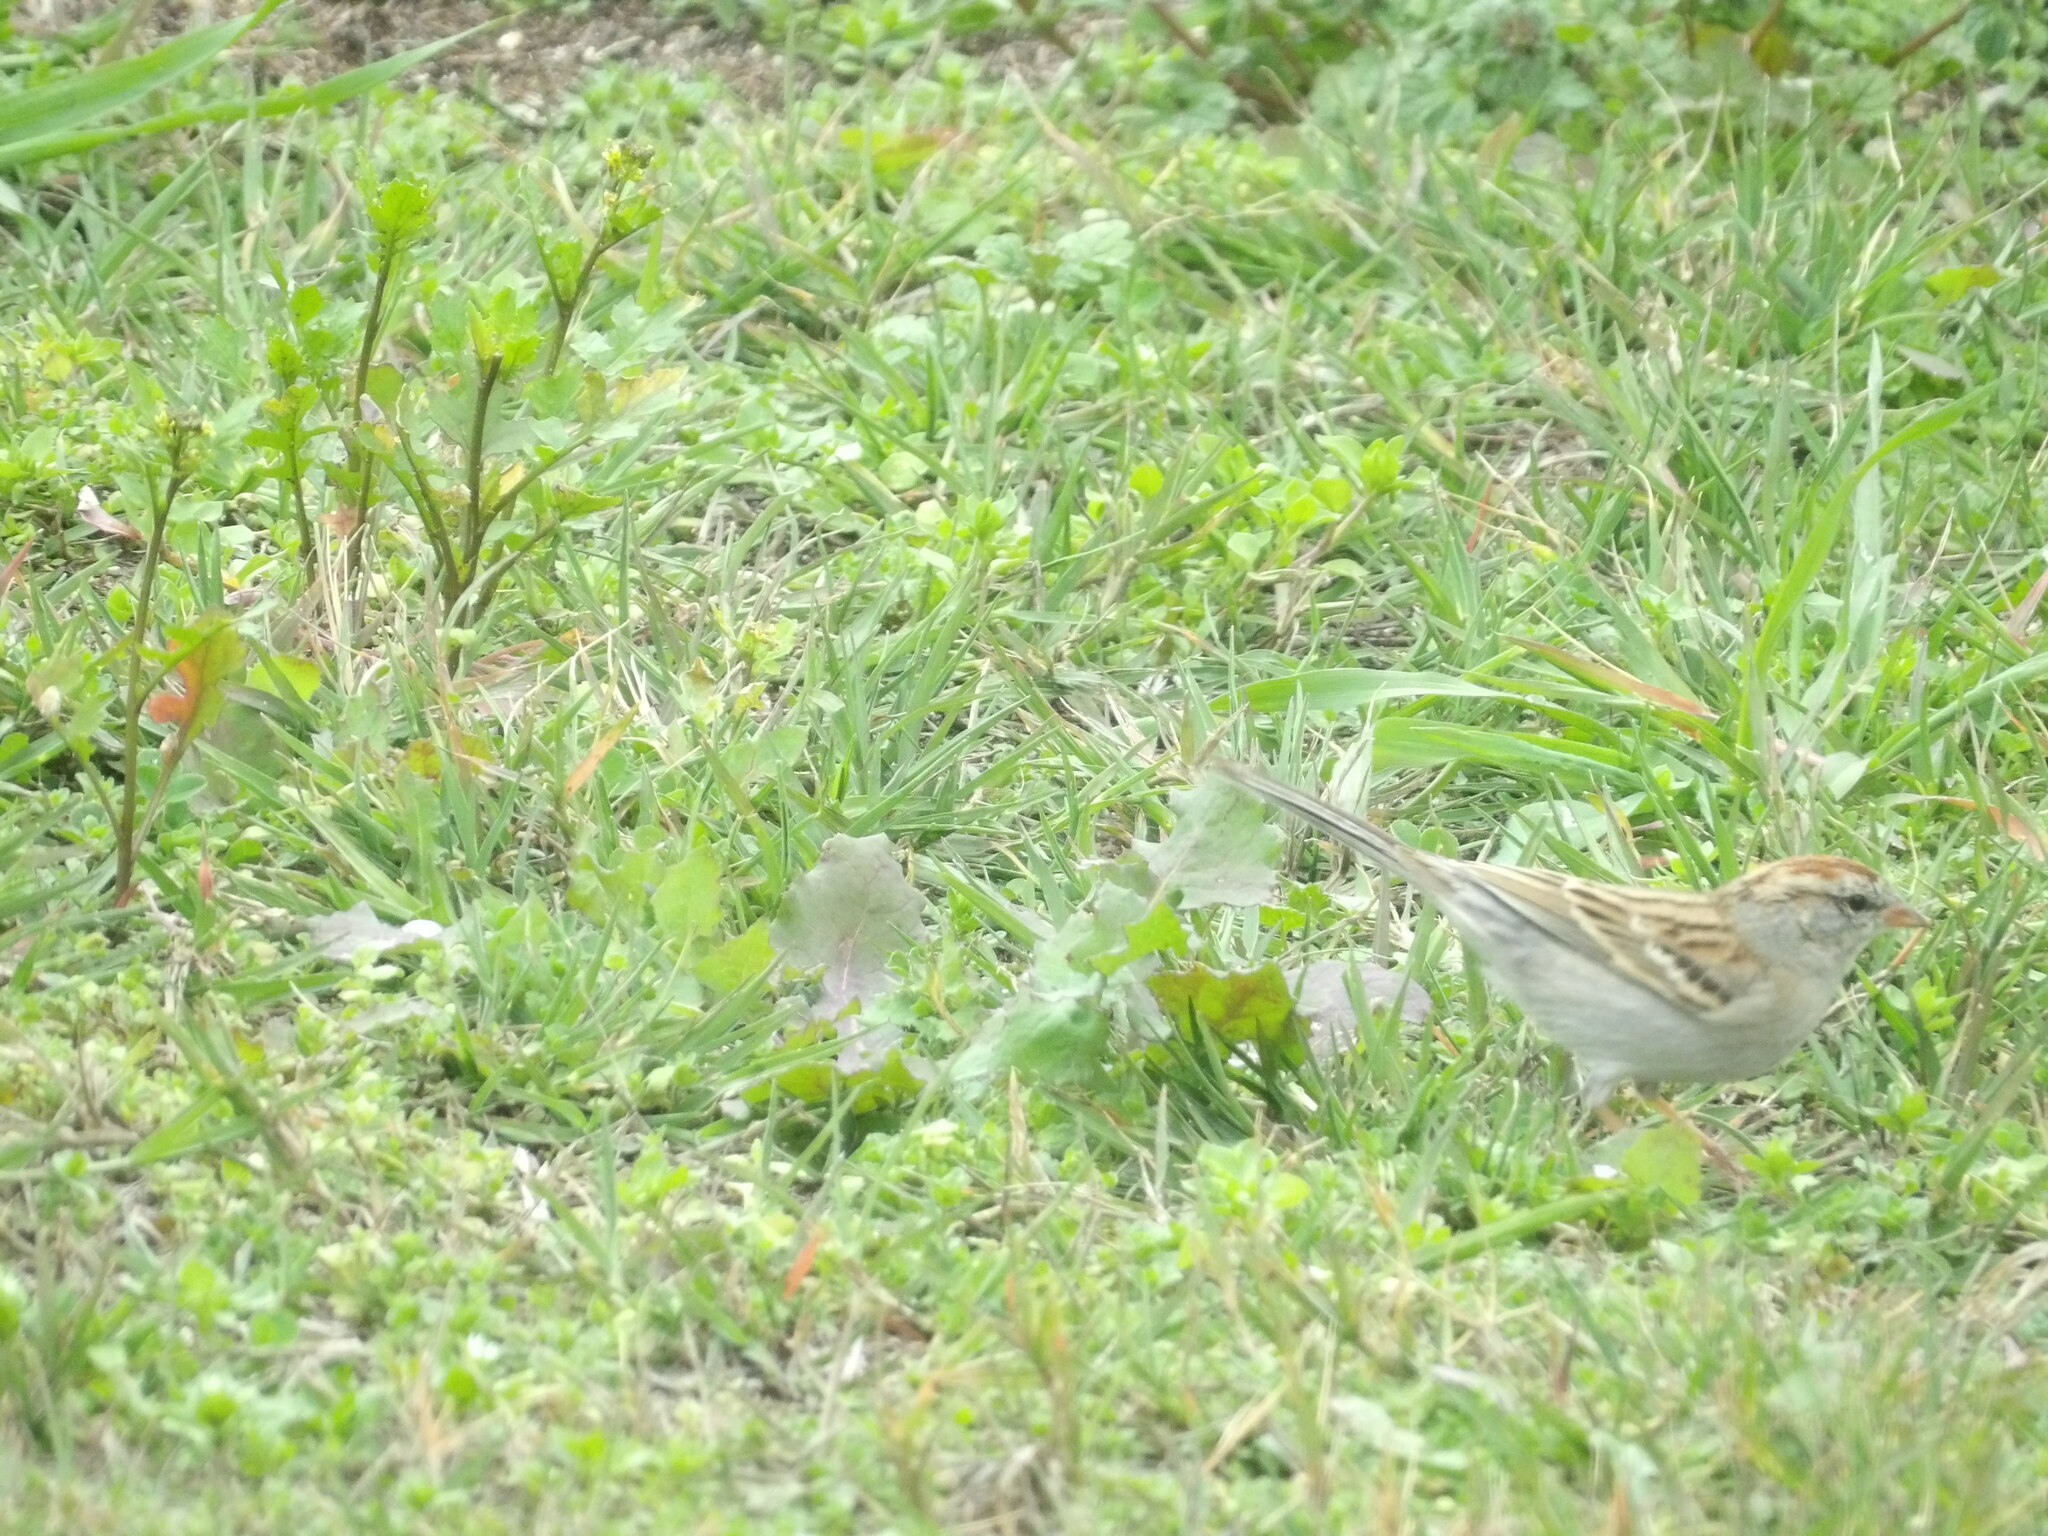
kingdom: Animalia
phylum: Chordata
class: Aves
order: Passeriformes
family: Passerellidae
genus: Spizella
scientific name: Spizella passerina
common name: Chipping sparrow
